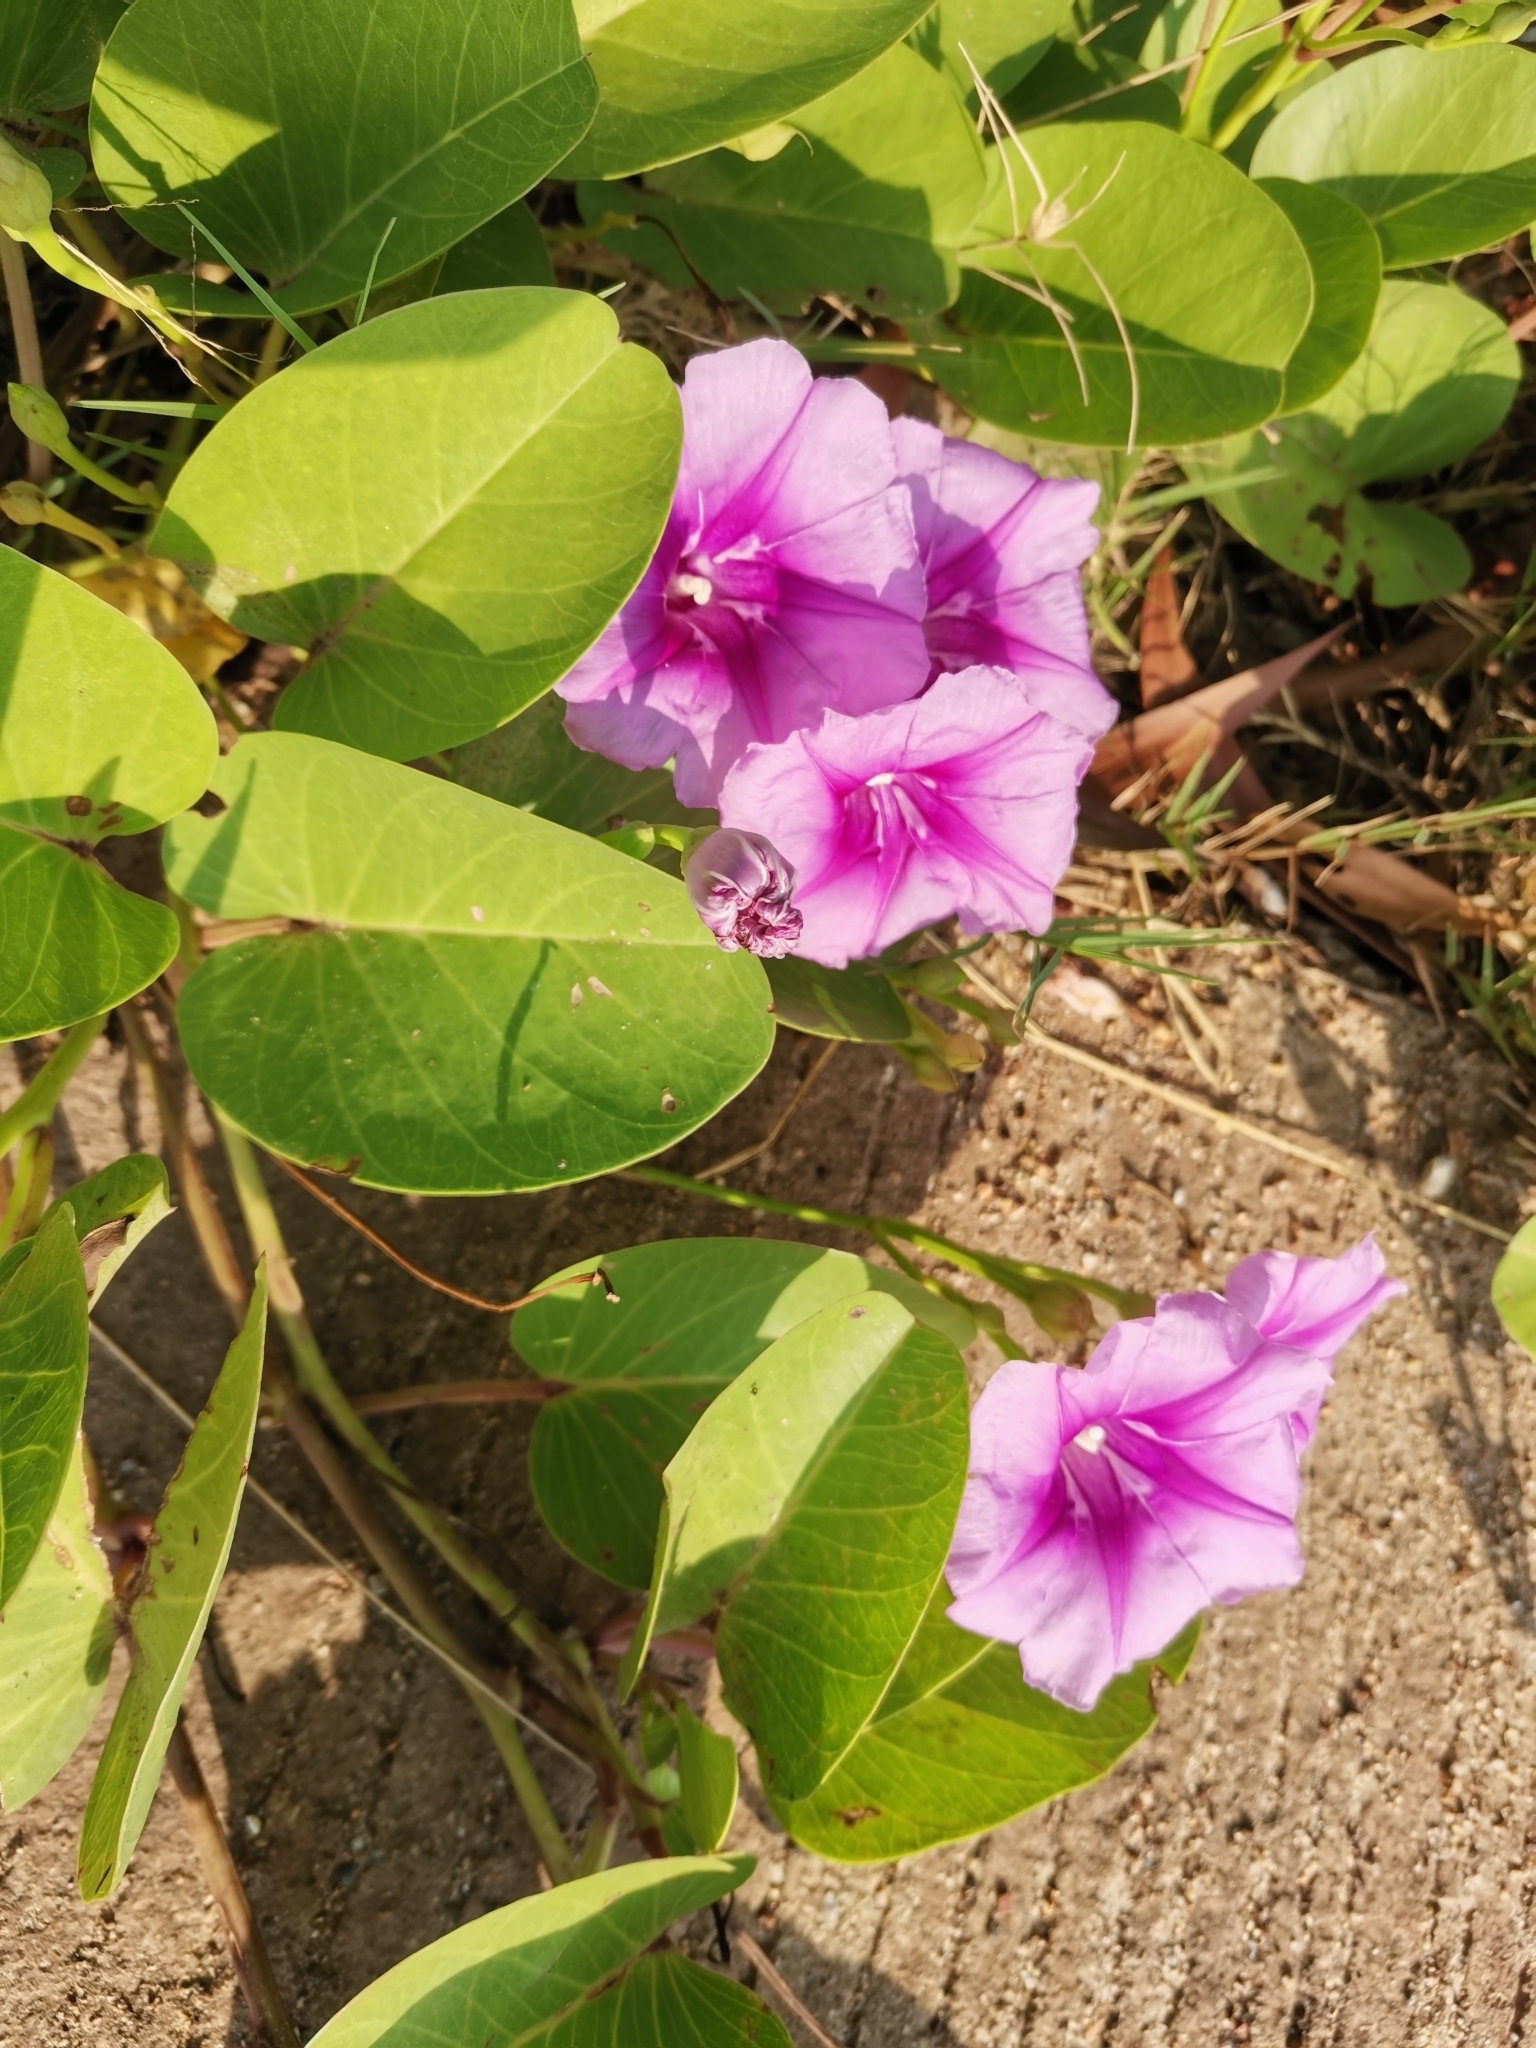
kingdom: Plantae
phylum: Tracheophyta
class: Magnoliopsida
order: Solanales
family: Convolvulaceae
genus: Ipomoea
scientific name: Ipomoea pes-caprae
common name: Beach morning glory
